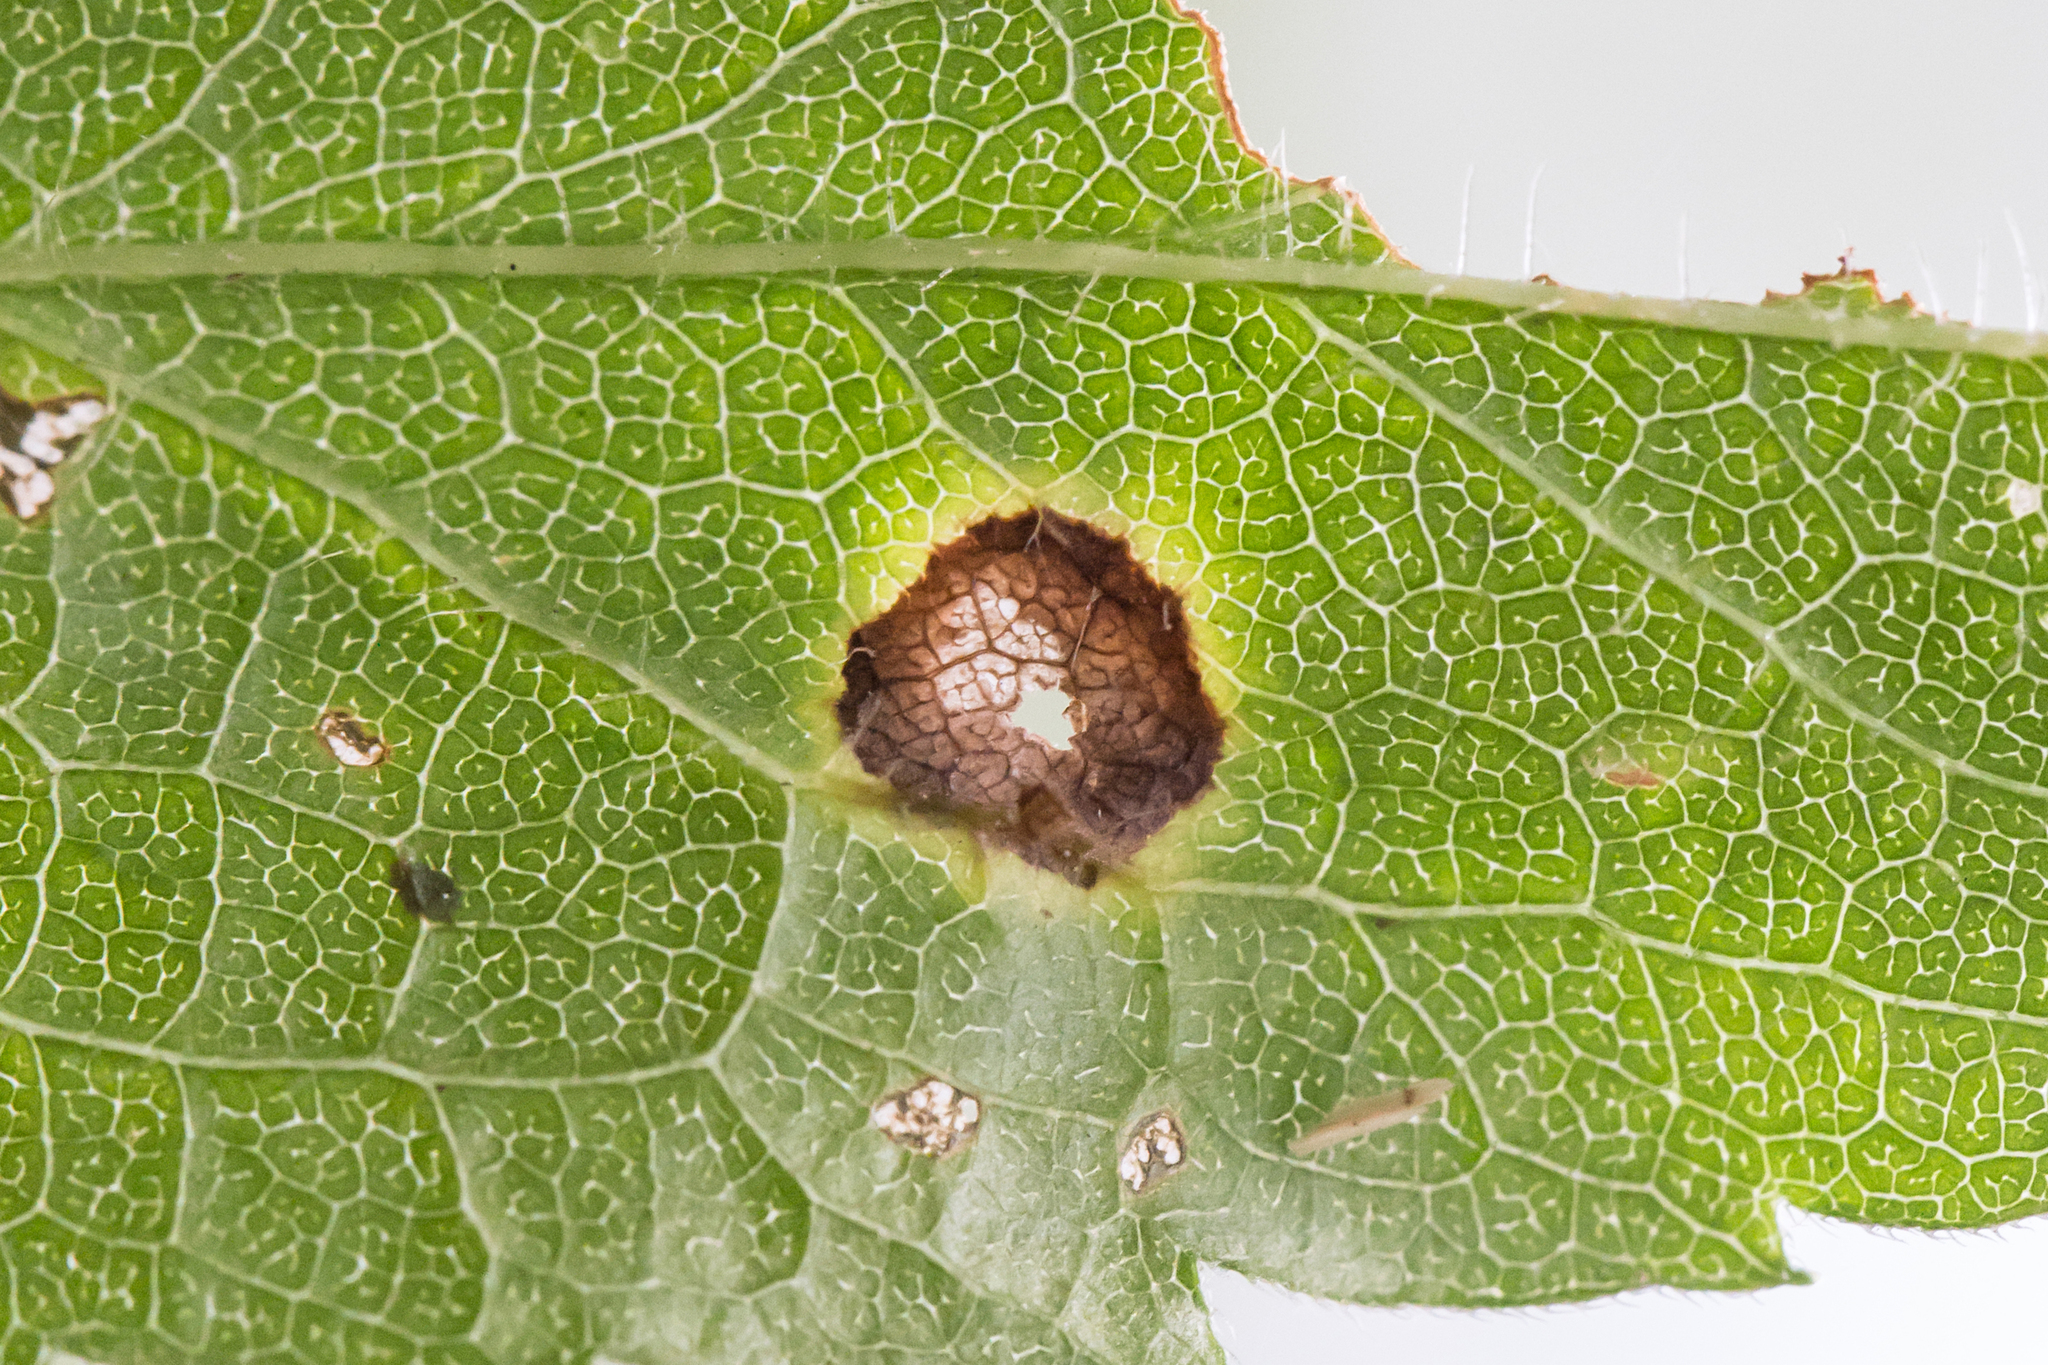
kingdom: Animalia
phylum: Arthropoda
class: Insecta
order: Diptera
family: Cecidomyiidae
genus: Asteromyia
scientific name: Asteromyia carbonifera
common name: Carbonifera goldenrod gall midge
